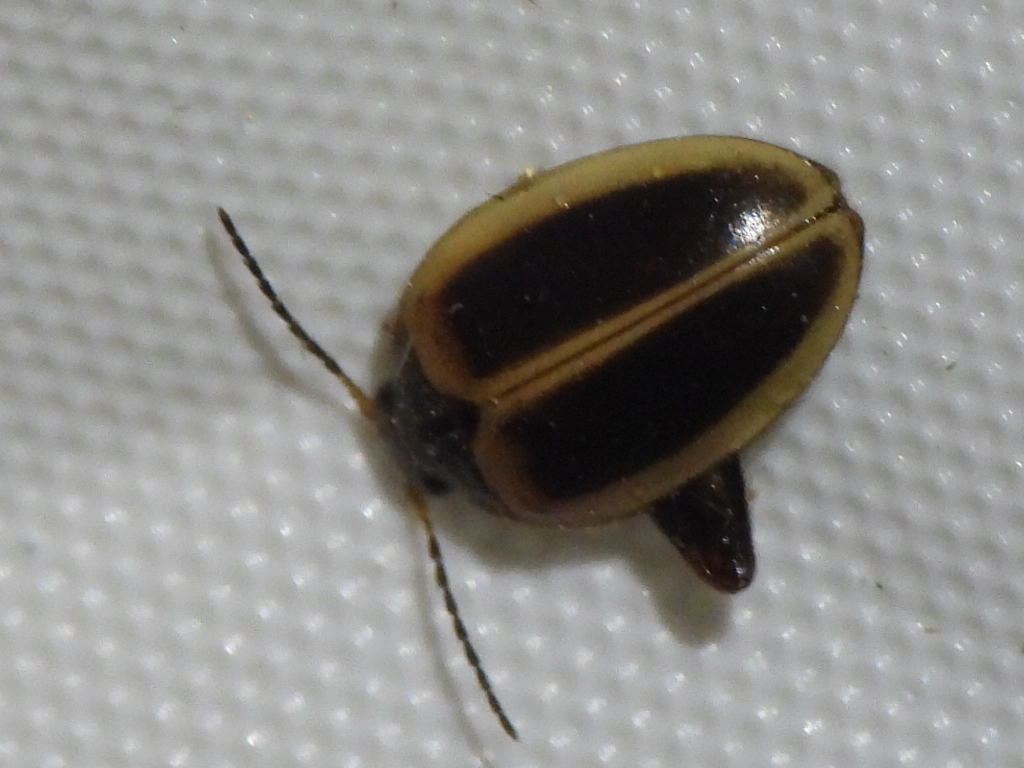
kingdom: Animalia
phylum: Arthropoda
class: Insecta
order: Coleoptera
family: Scirtidae
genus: Ora
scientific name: Ora discoidea
